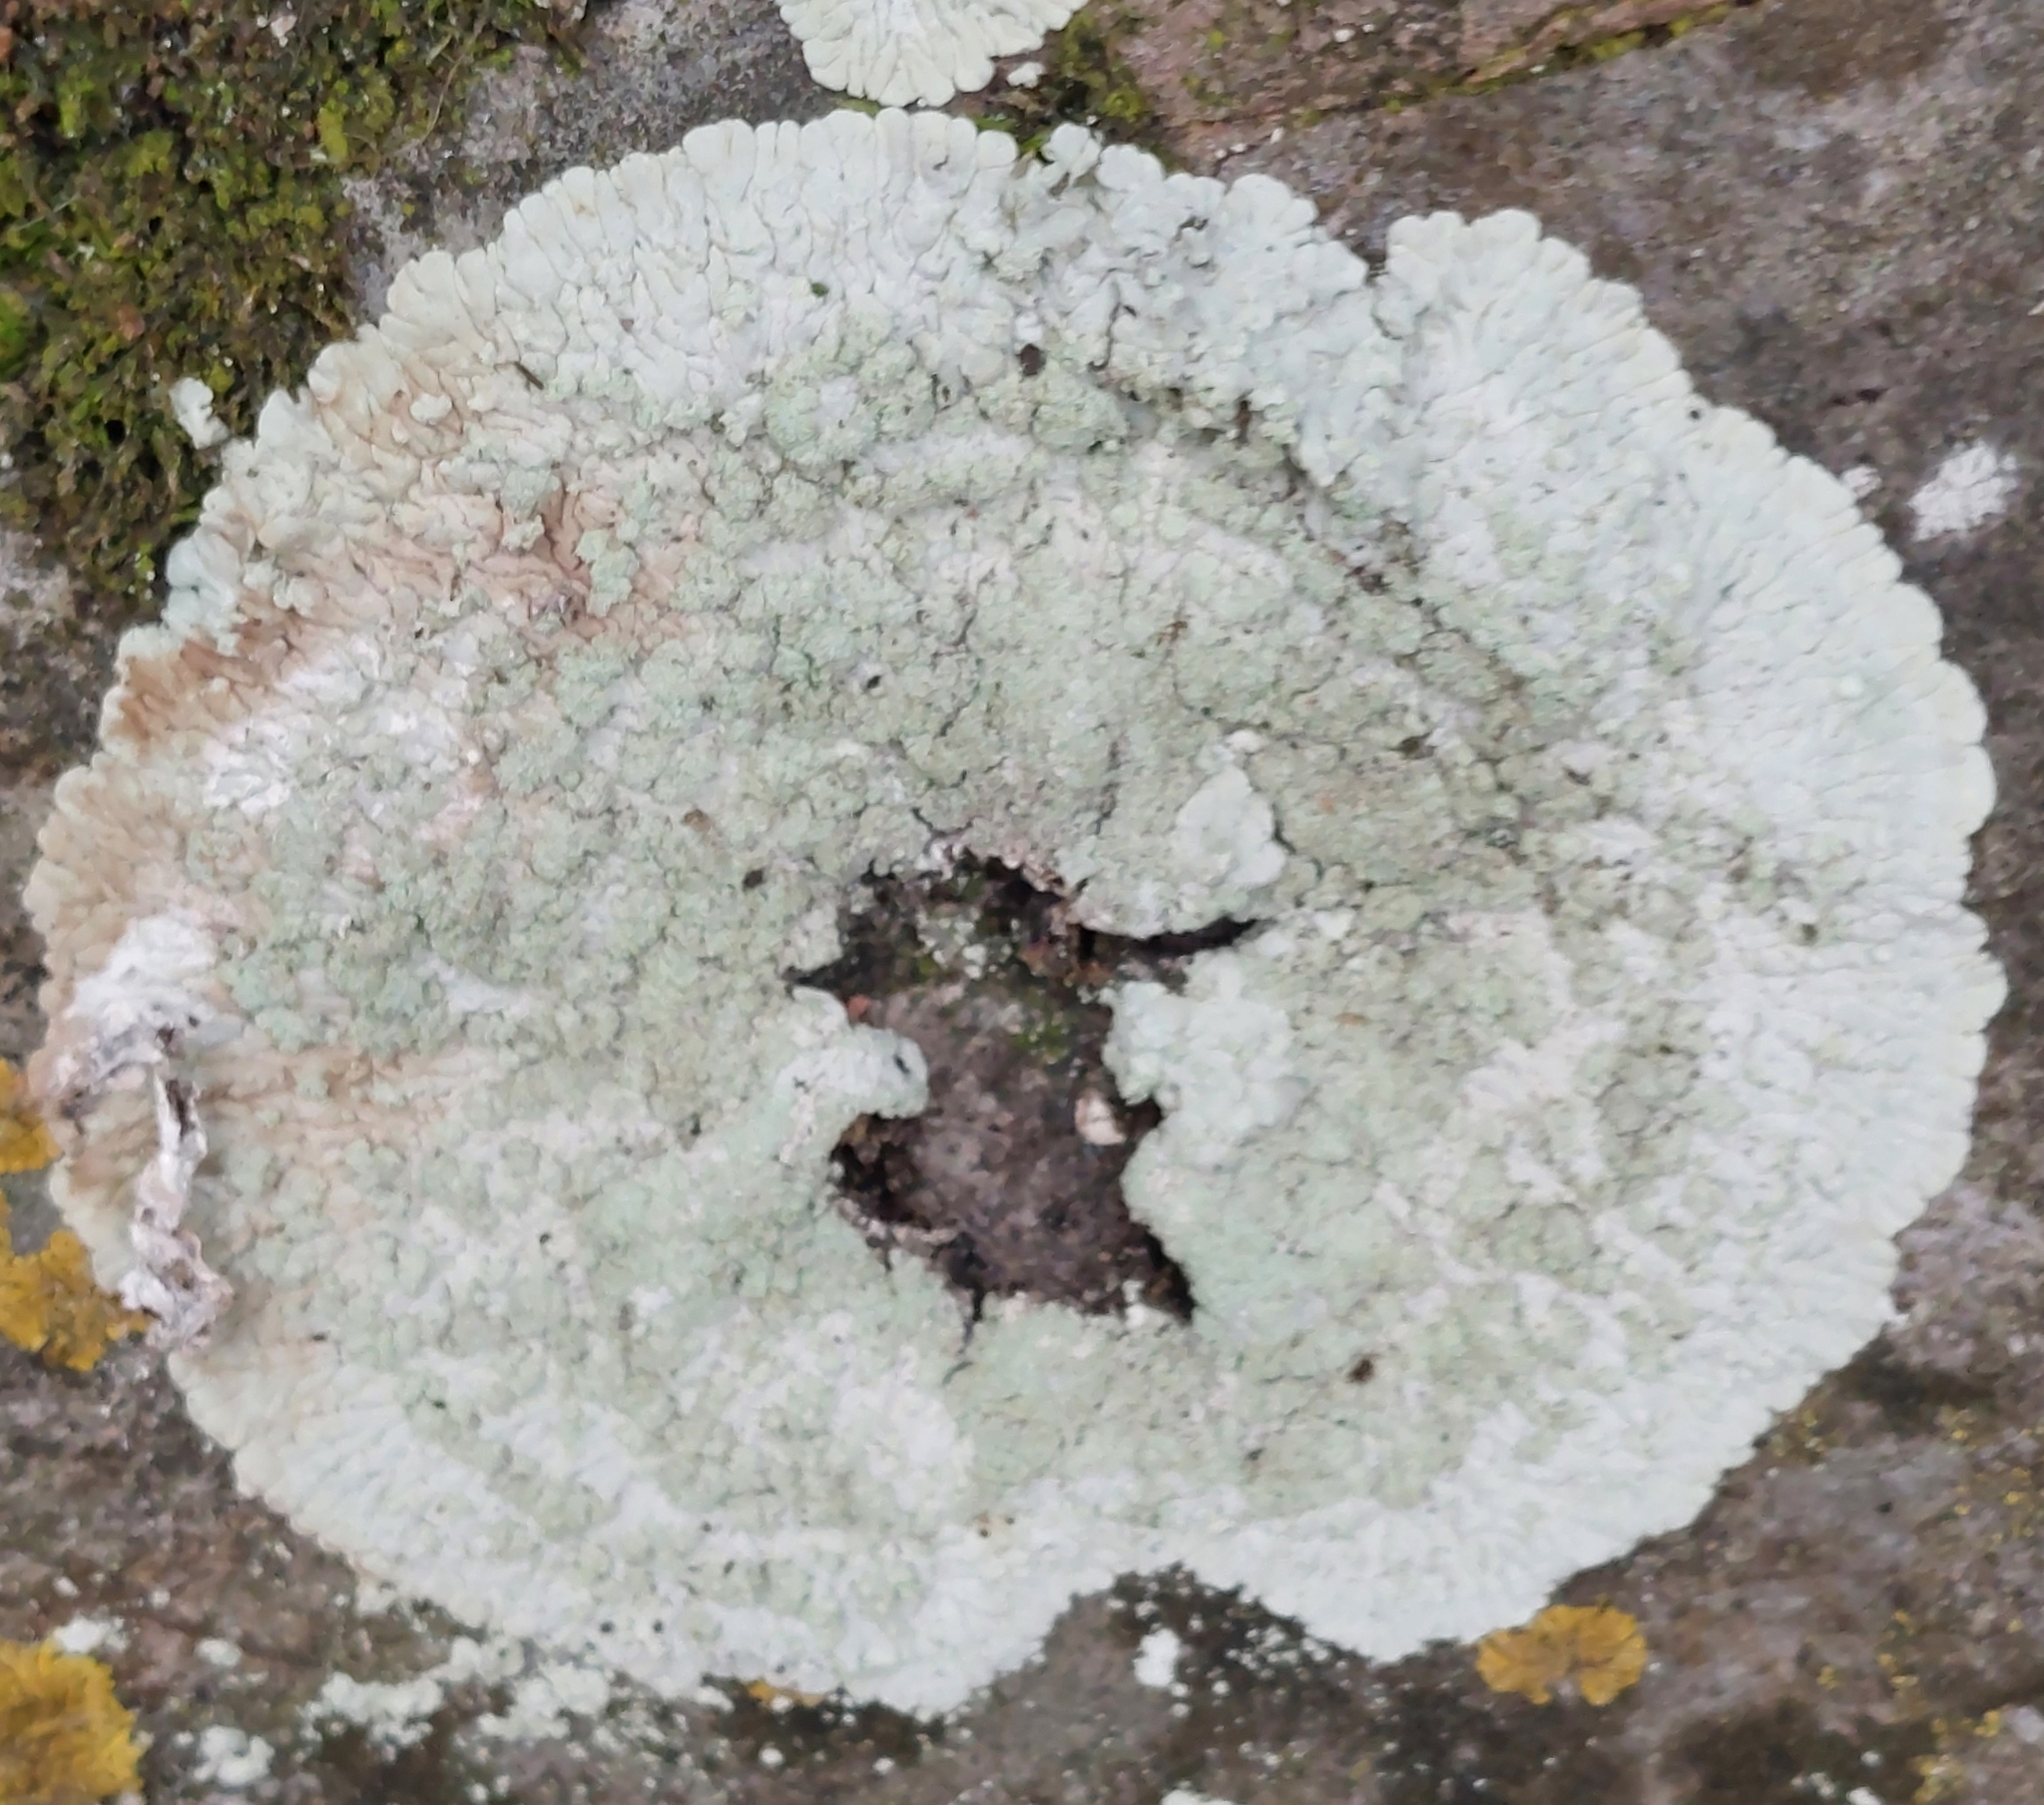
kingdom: Fungi
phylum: Ascomycota
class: Lecanoromycetes
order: Caliciales
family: Caliciaceae
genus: Diploicia
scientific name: Diploicia canescens
